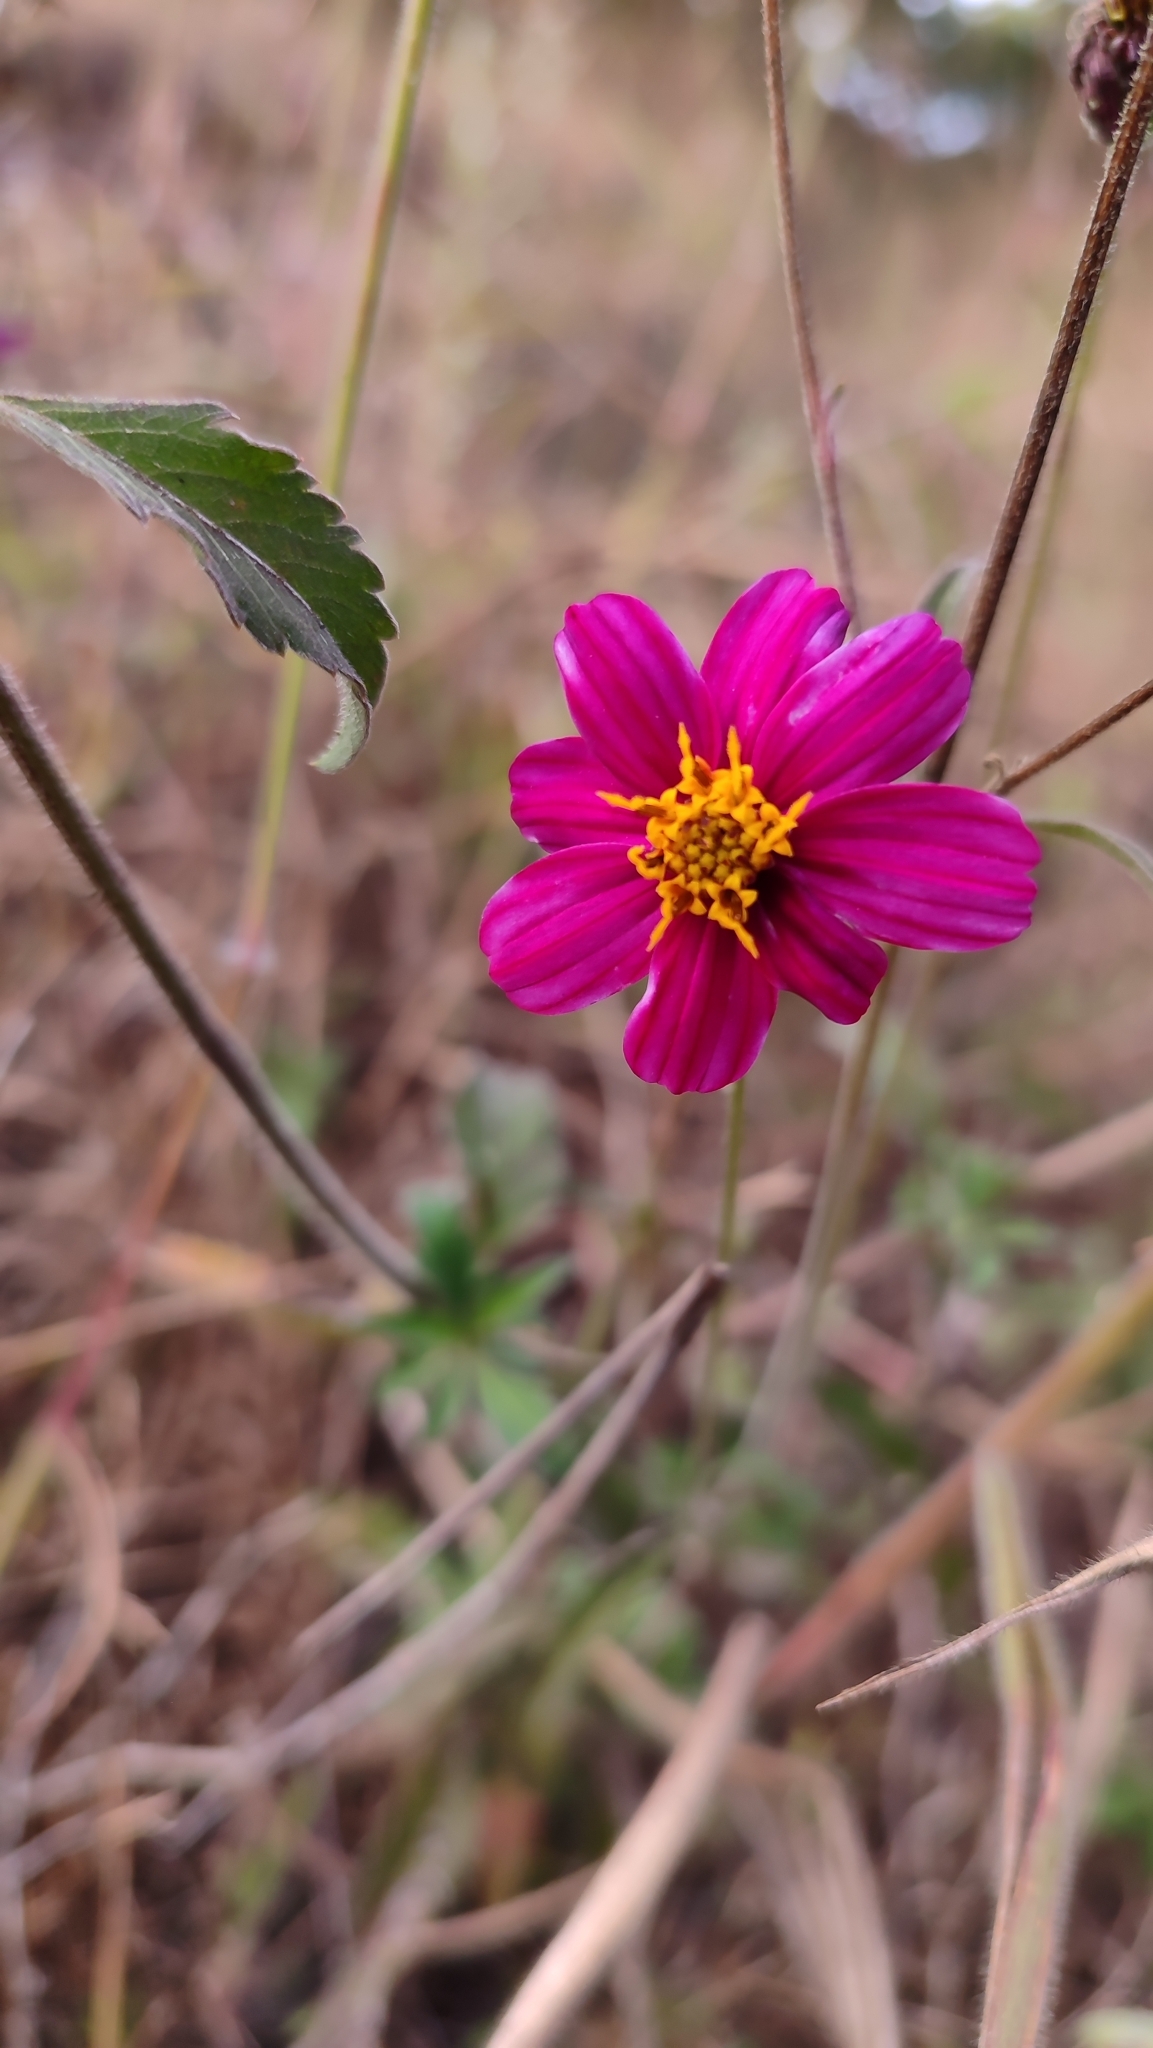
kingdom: Plantae
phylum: Tracheophyta
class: Magnoliopsida
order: Asterales
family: Asteraceae
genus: Bidens
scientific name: Bidens aequisquama
